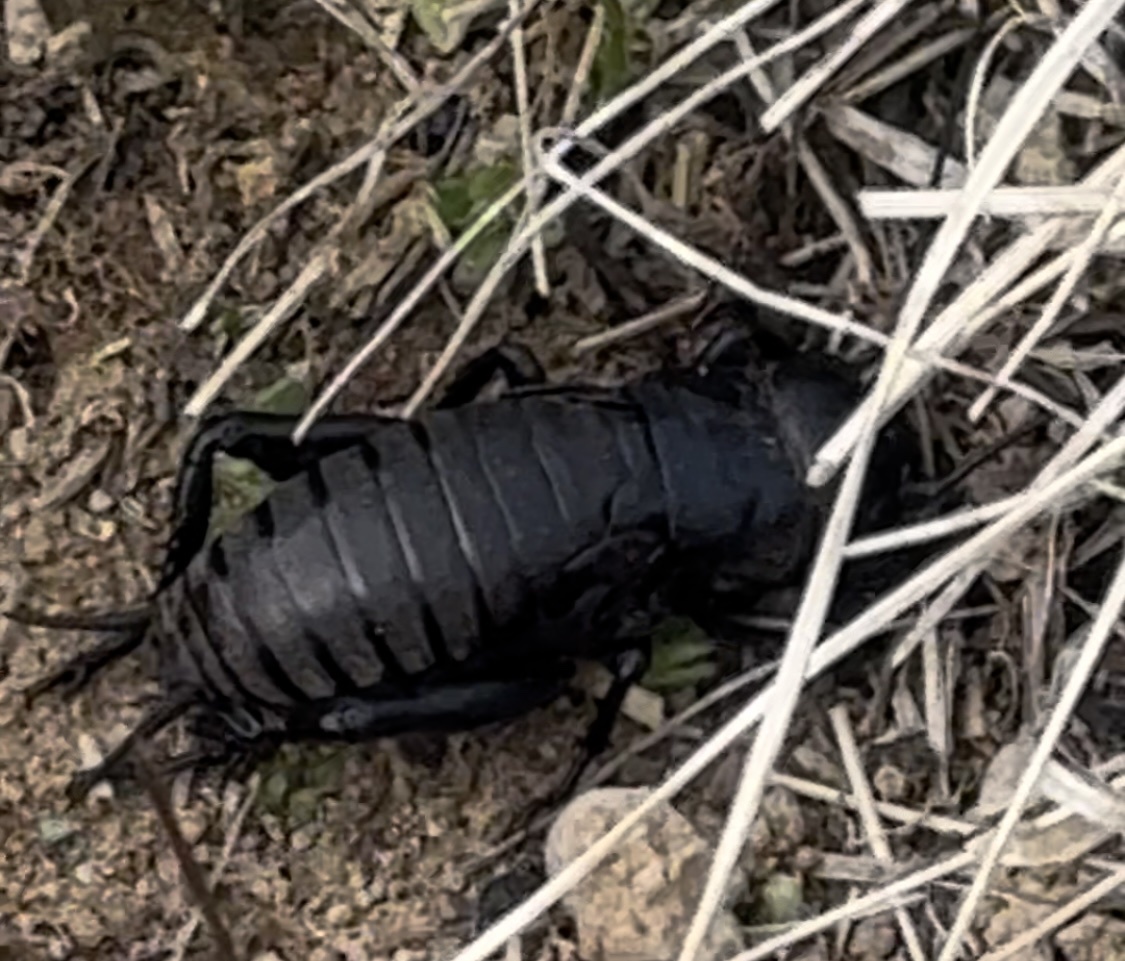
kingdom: Animalia
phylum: Arthropoda
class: Insecta
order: Orthoptera
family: Gryllidae
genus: Gryllus
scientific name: Gryllus campestris
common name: Field cricket
